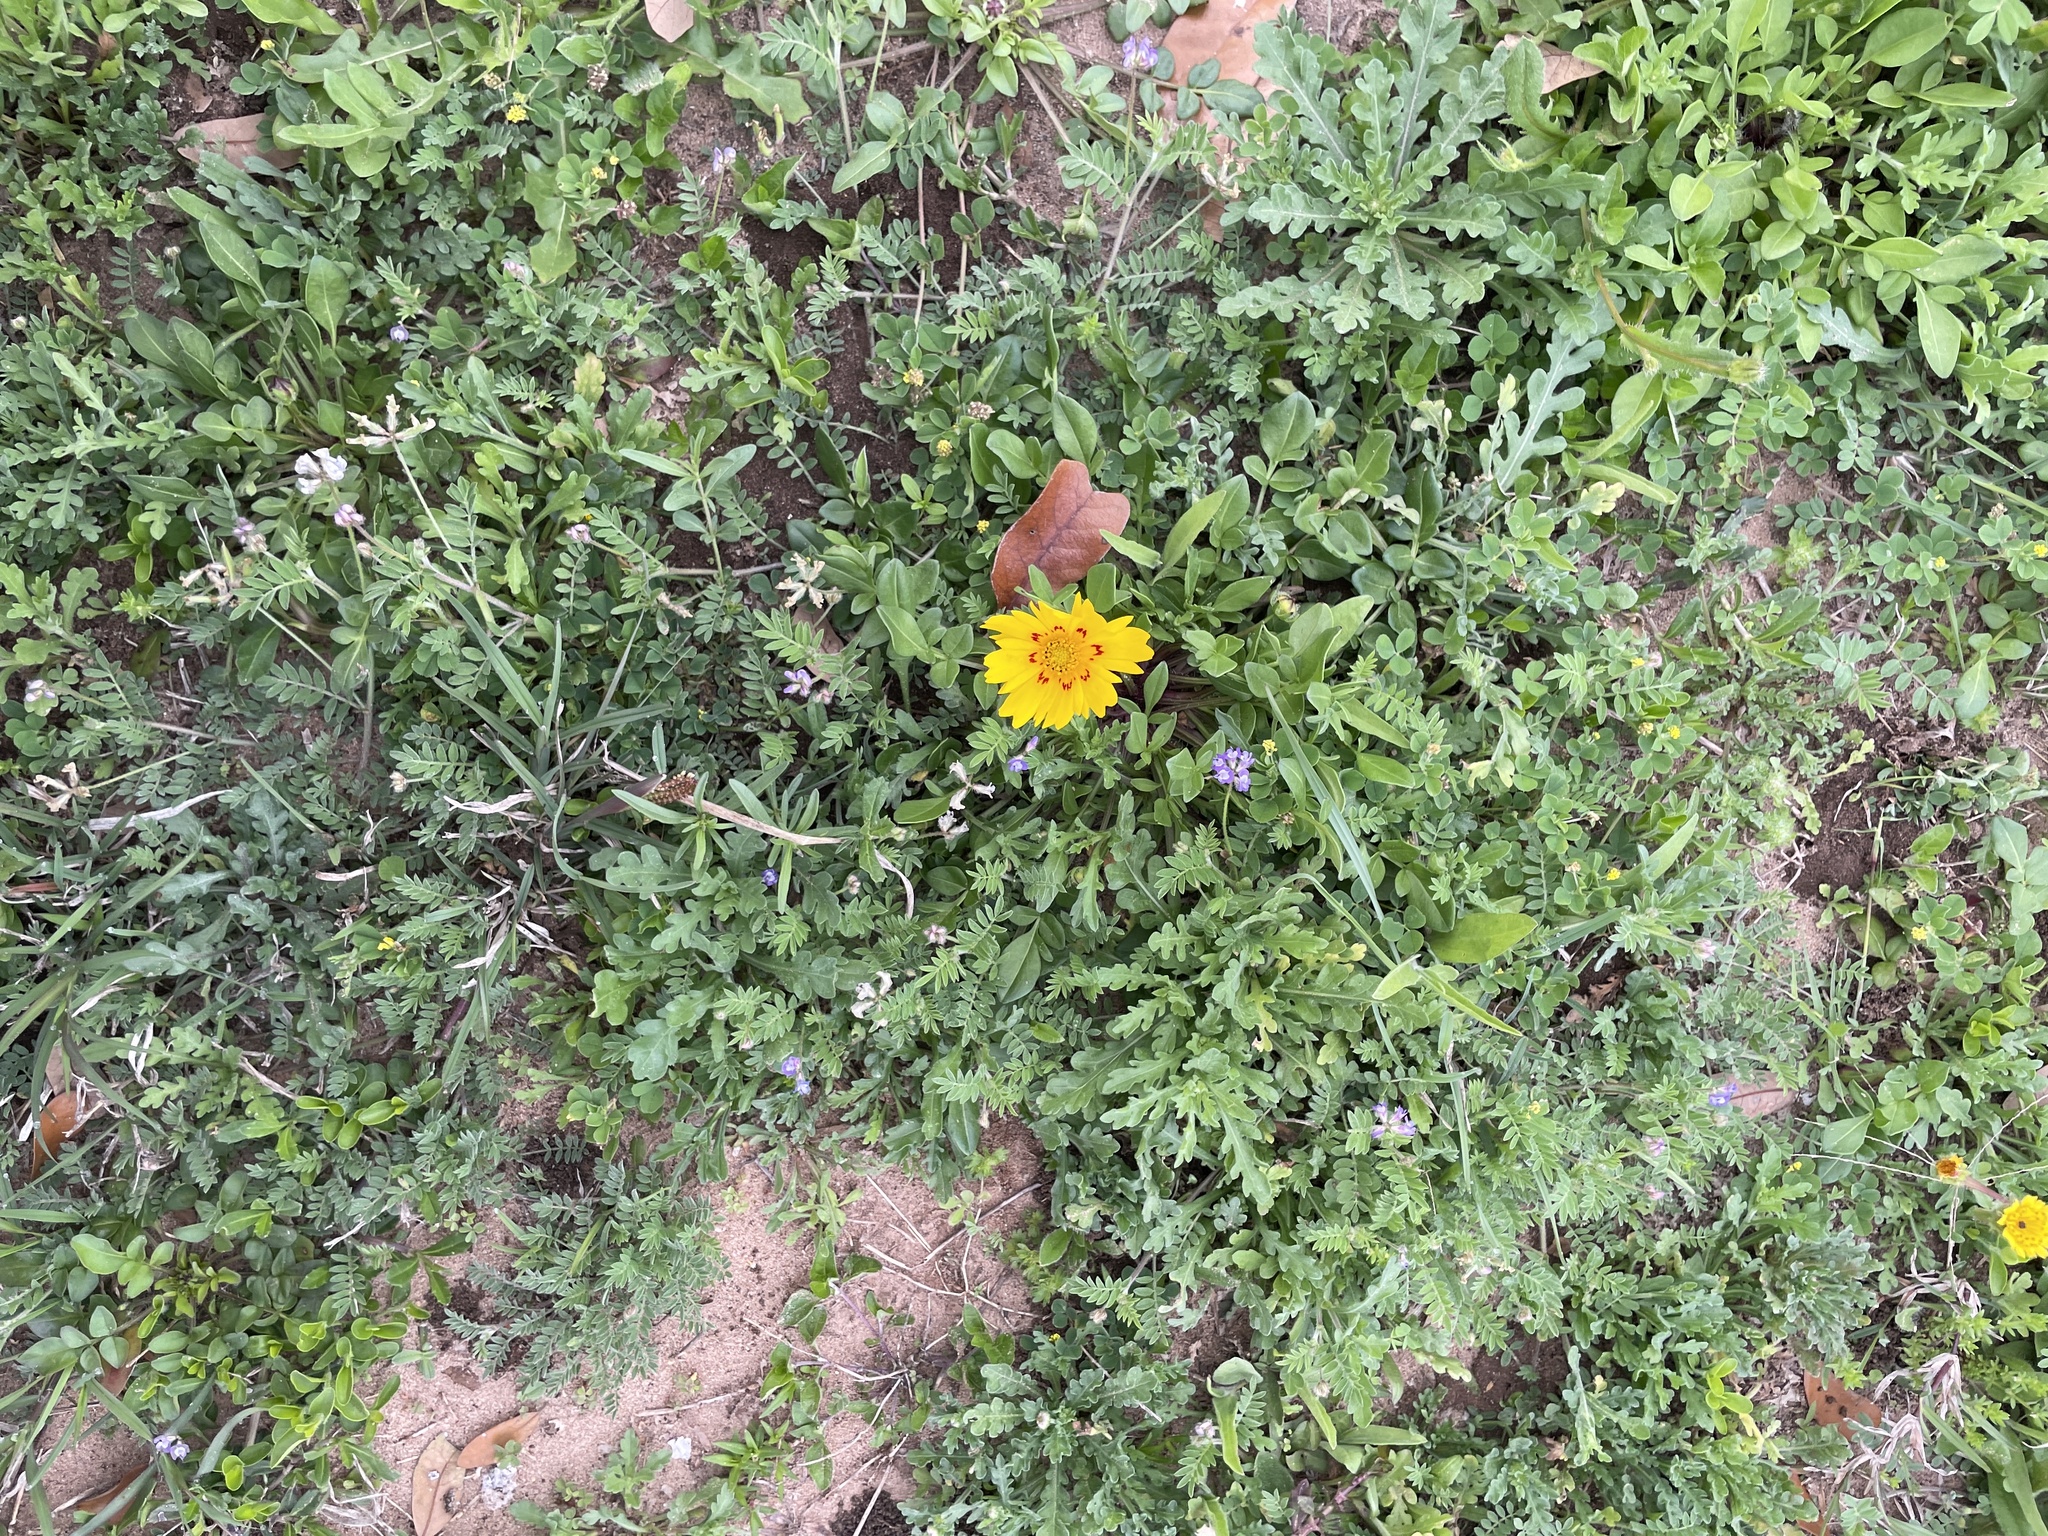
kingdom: Plantae
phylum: Tracheophyta
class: Magnoliopsida
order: Asterales
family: Asteraceae
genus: Coreopsis
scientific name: Coreopsis nuecensis
